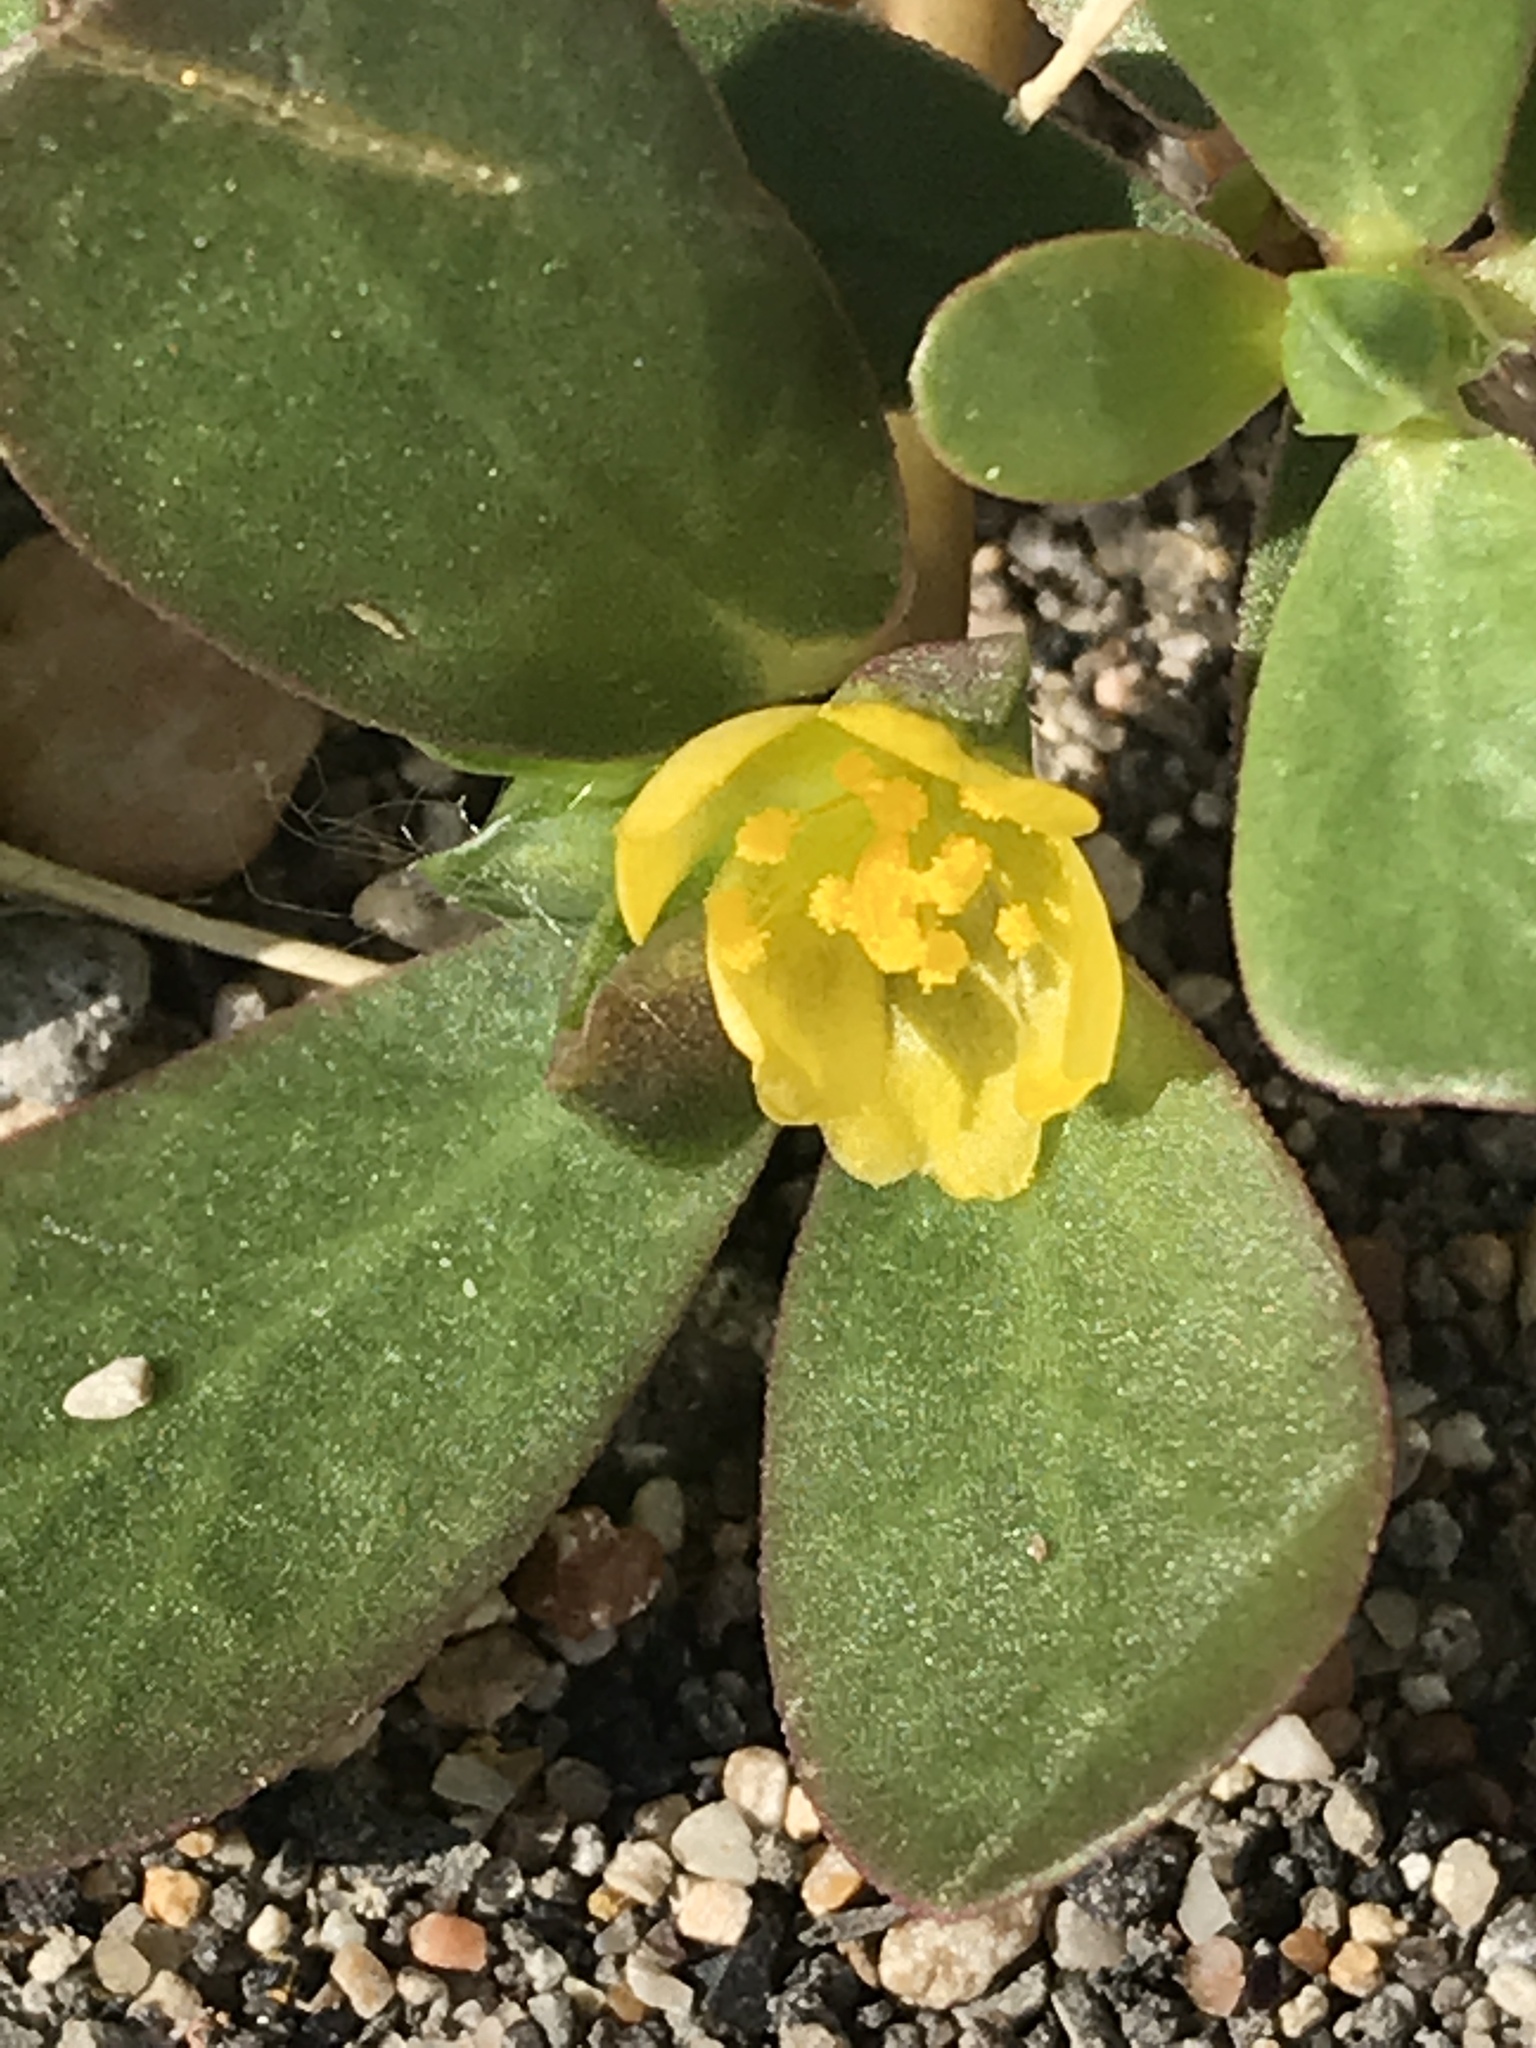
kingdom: Plantae
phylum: Tracheophyta
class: Magnoliopsida
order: Caryophyllales
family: Portulacaceae
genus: Portulaca
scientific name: Portulaca oleracea
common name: Common purslane
